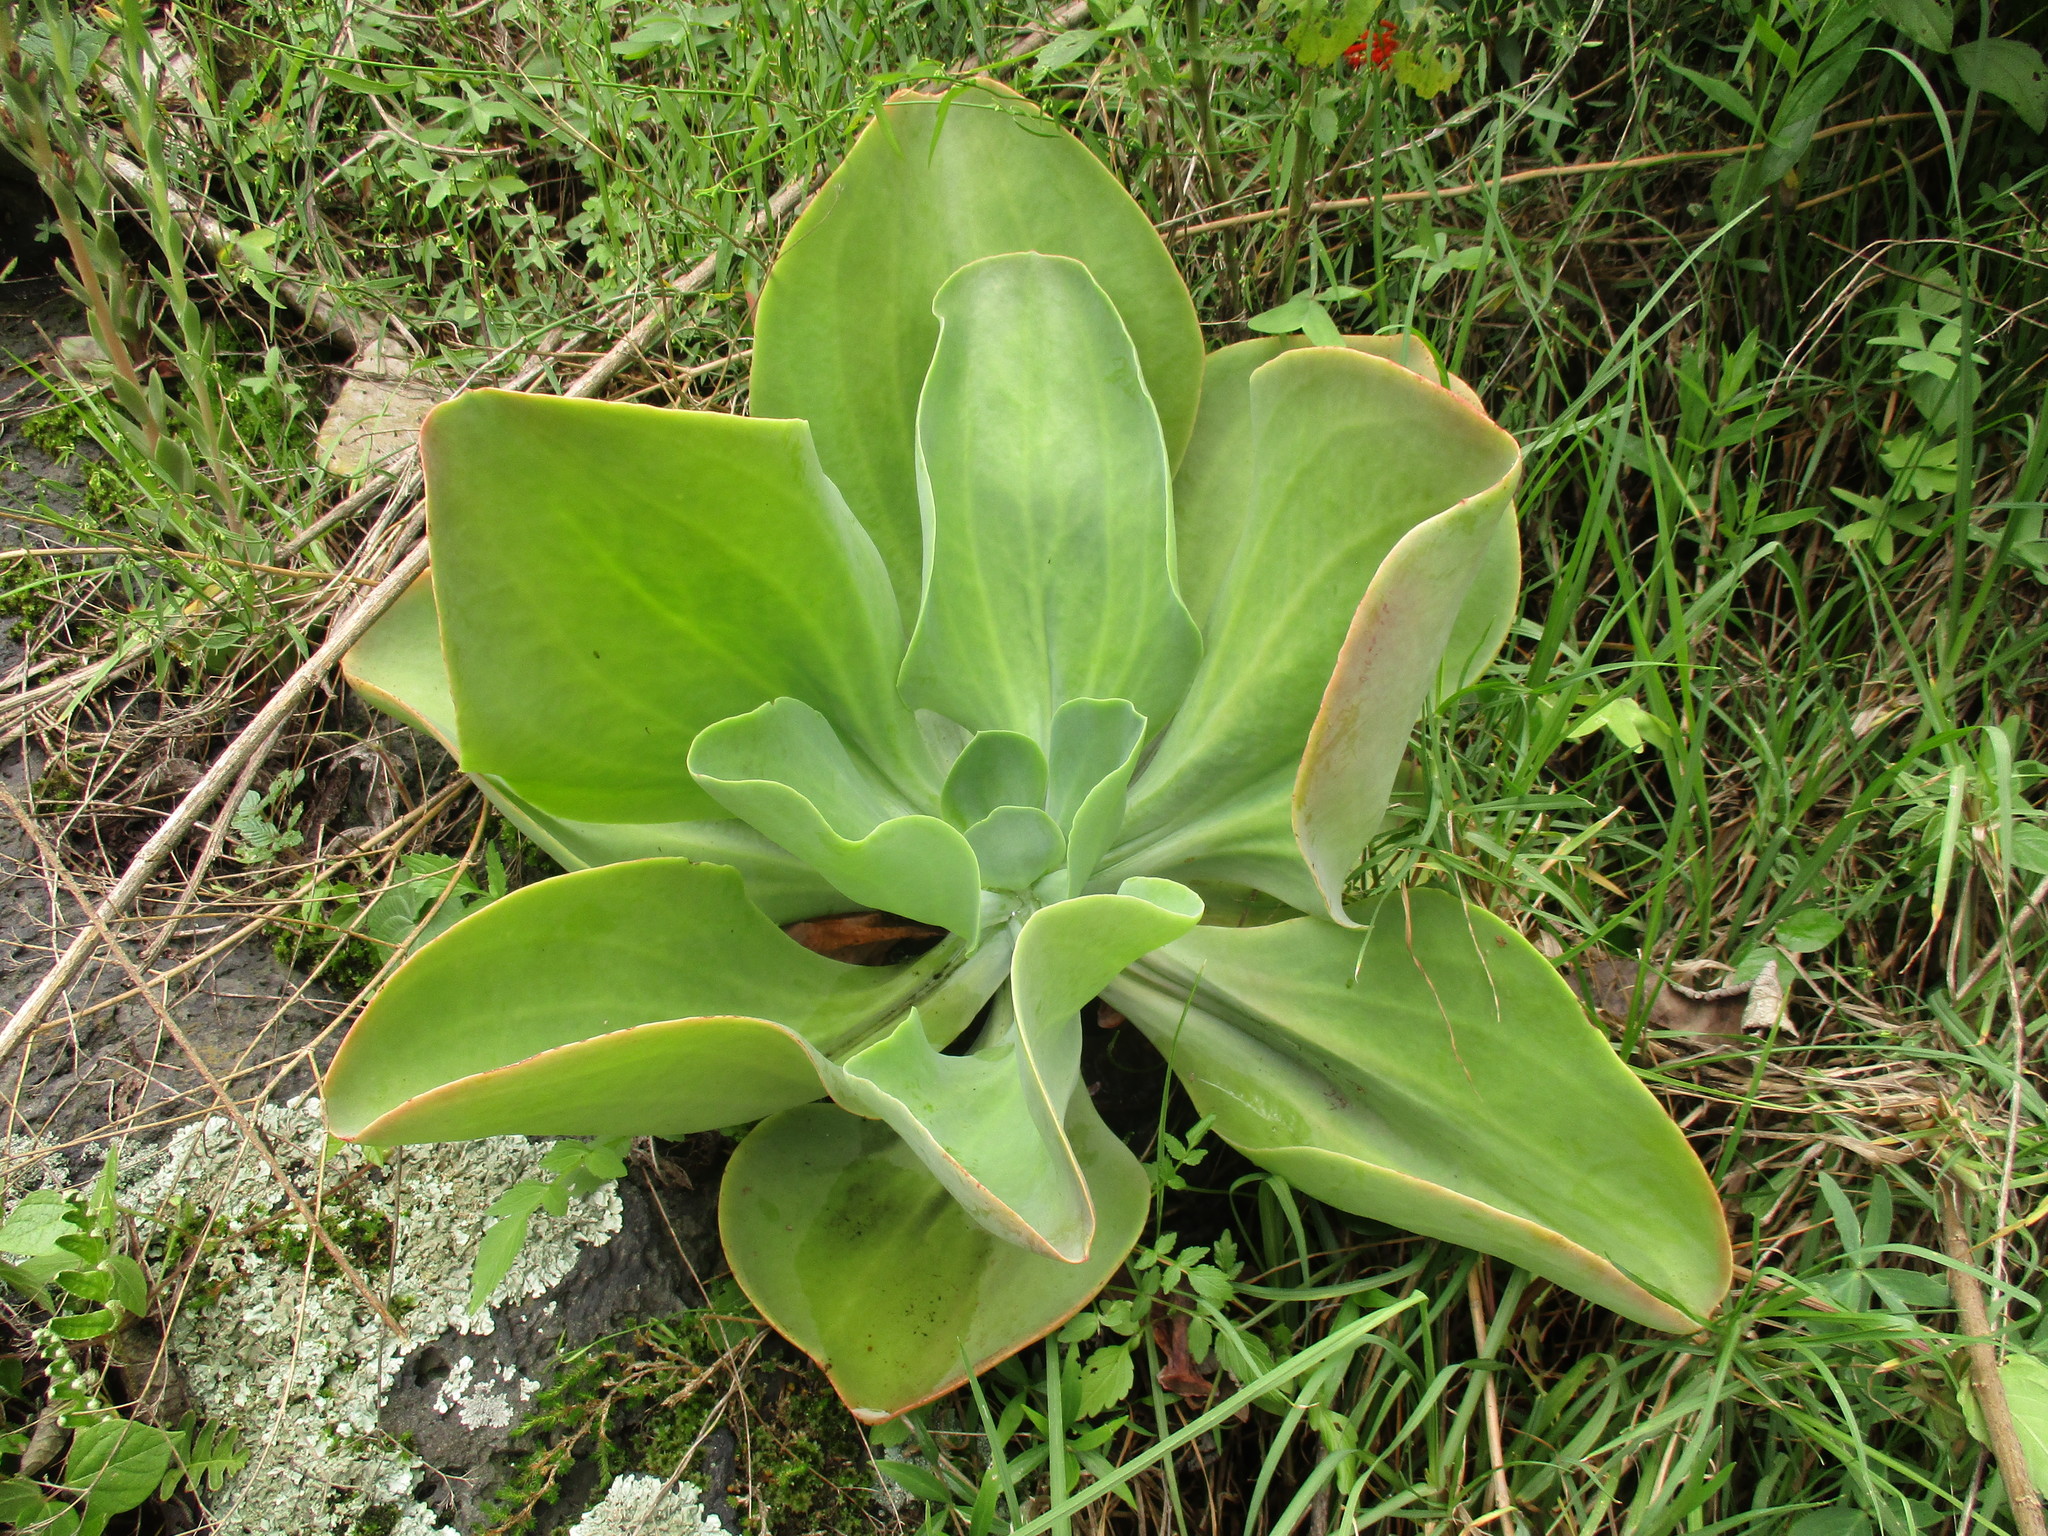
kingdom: Plantae
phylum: Tracheophyta
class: Magnoliopsida
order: Saxifragales
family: Crassulaceae
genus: Echeveria
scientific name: Echeveria gibbiflora
